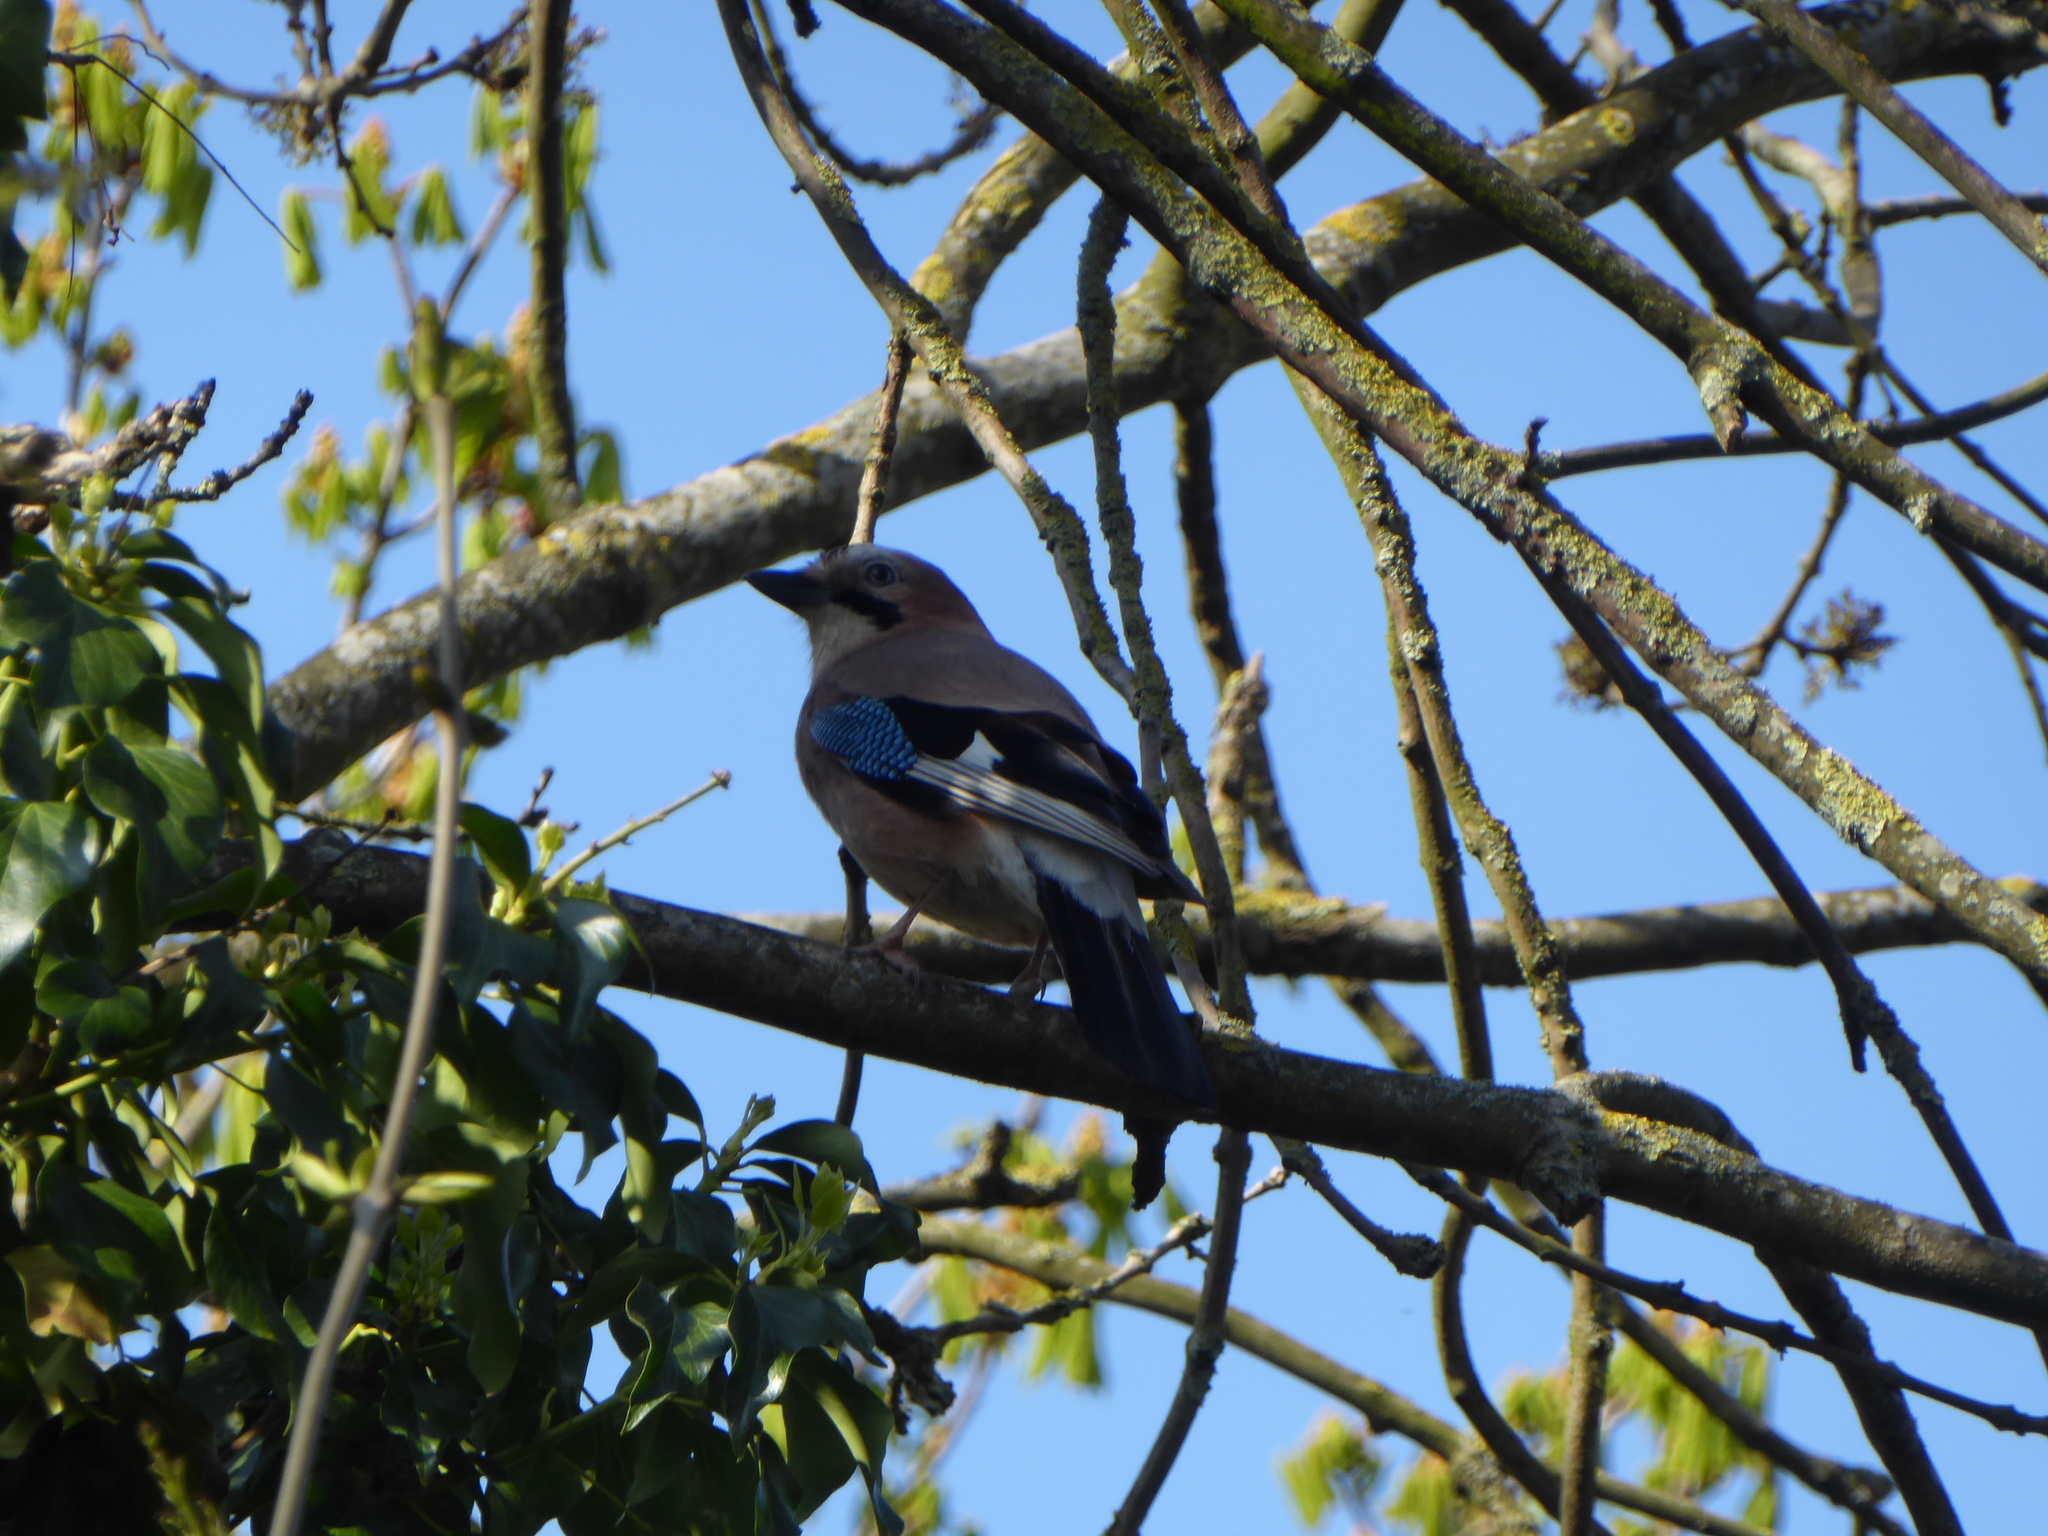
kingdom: Animalia
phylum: Chordata
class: Aves
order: Passeriformes
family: Corvidae
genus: Garrulus
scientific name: Garrulus glandarius
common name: Eurasian jay
